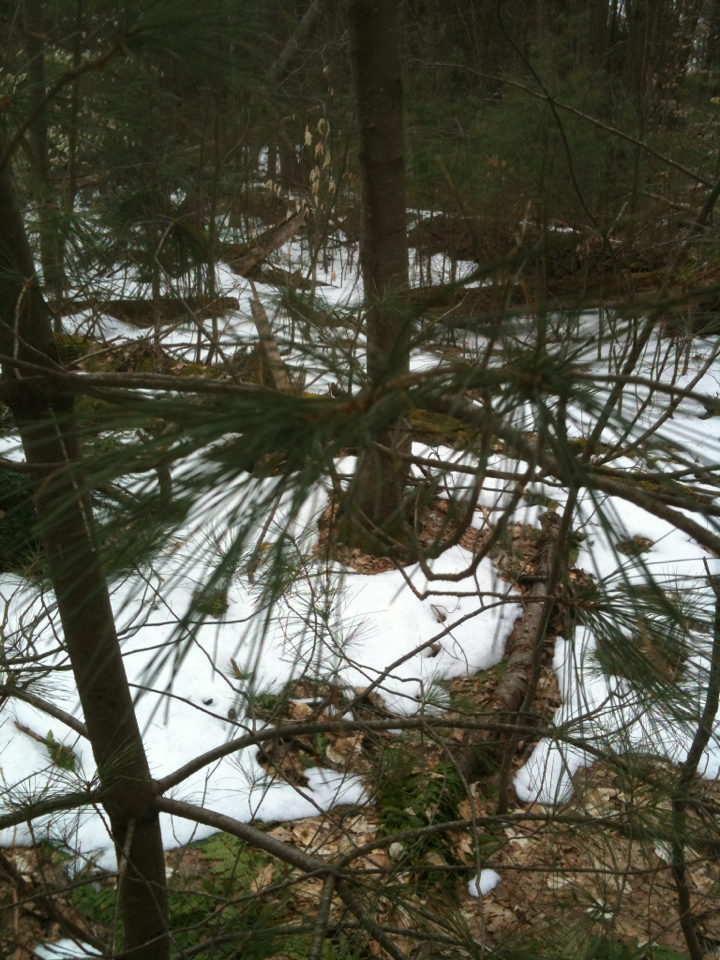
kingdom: Plantae
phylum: Tracheophyta
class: Pinopsida
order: Pinales
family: Pinaceae
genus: Pinus
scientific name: Pinus strobus
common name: Weymouth pine
